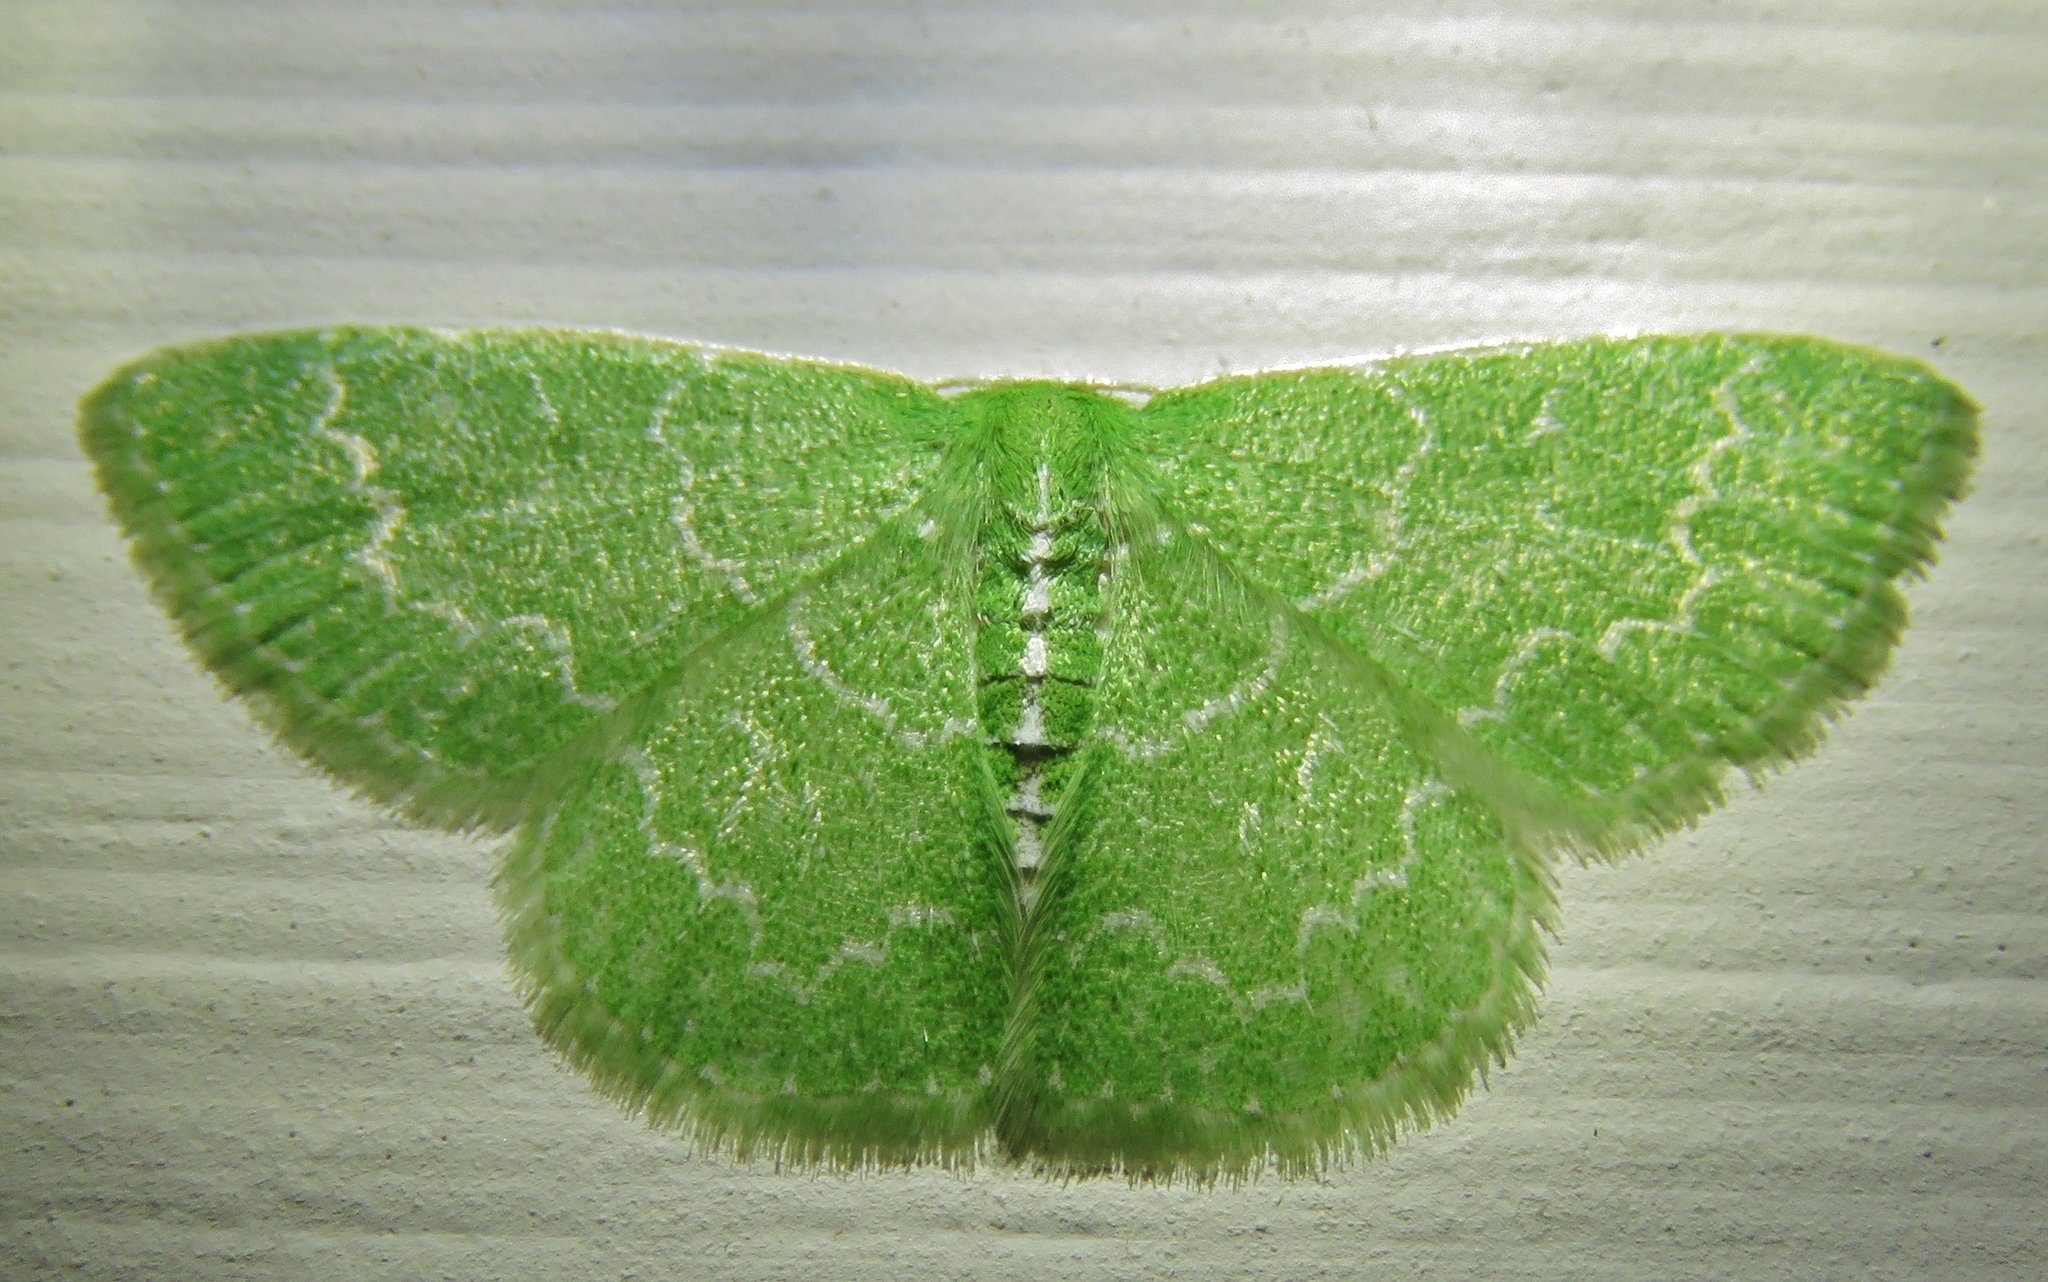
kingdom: Animalia
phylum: Arthropoda
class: Insecta
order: Lepidoptera
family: Geometridae
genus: Synchlora
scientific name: Synchlora frondaria
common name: Southern emerald
